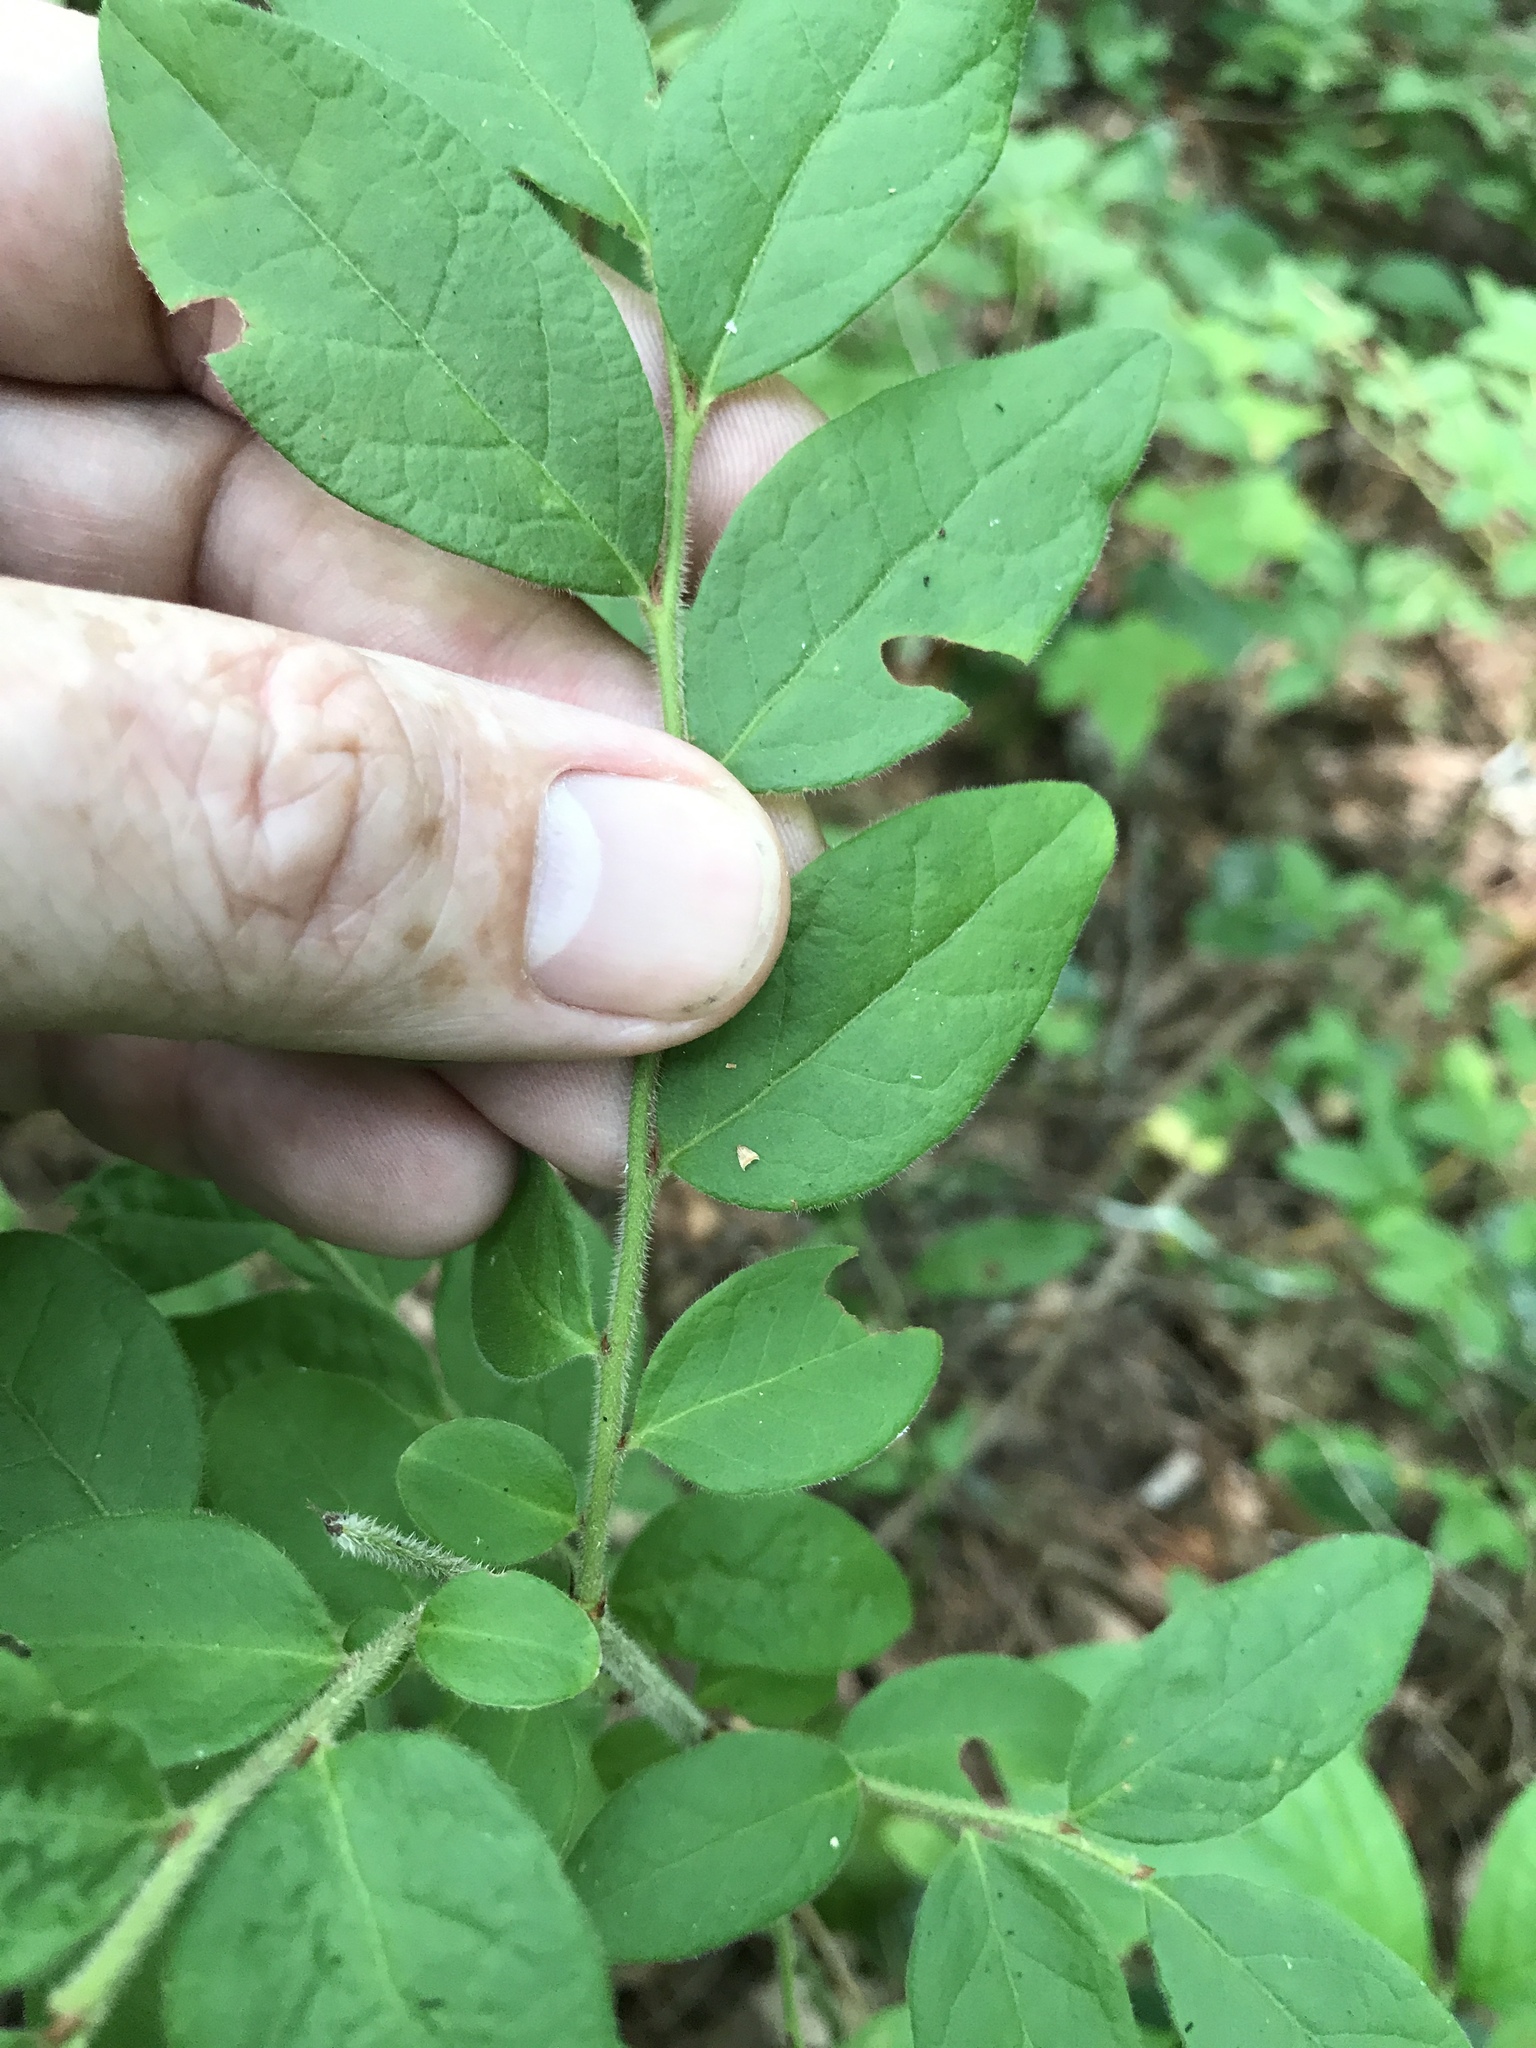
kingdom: Plantae
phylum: Tracheophyta
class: Magnoliopsida
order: Ericales
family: Ericaceae
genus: Vaccinium
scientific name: Vaccinium hirsutum
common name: Woolly-berry
